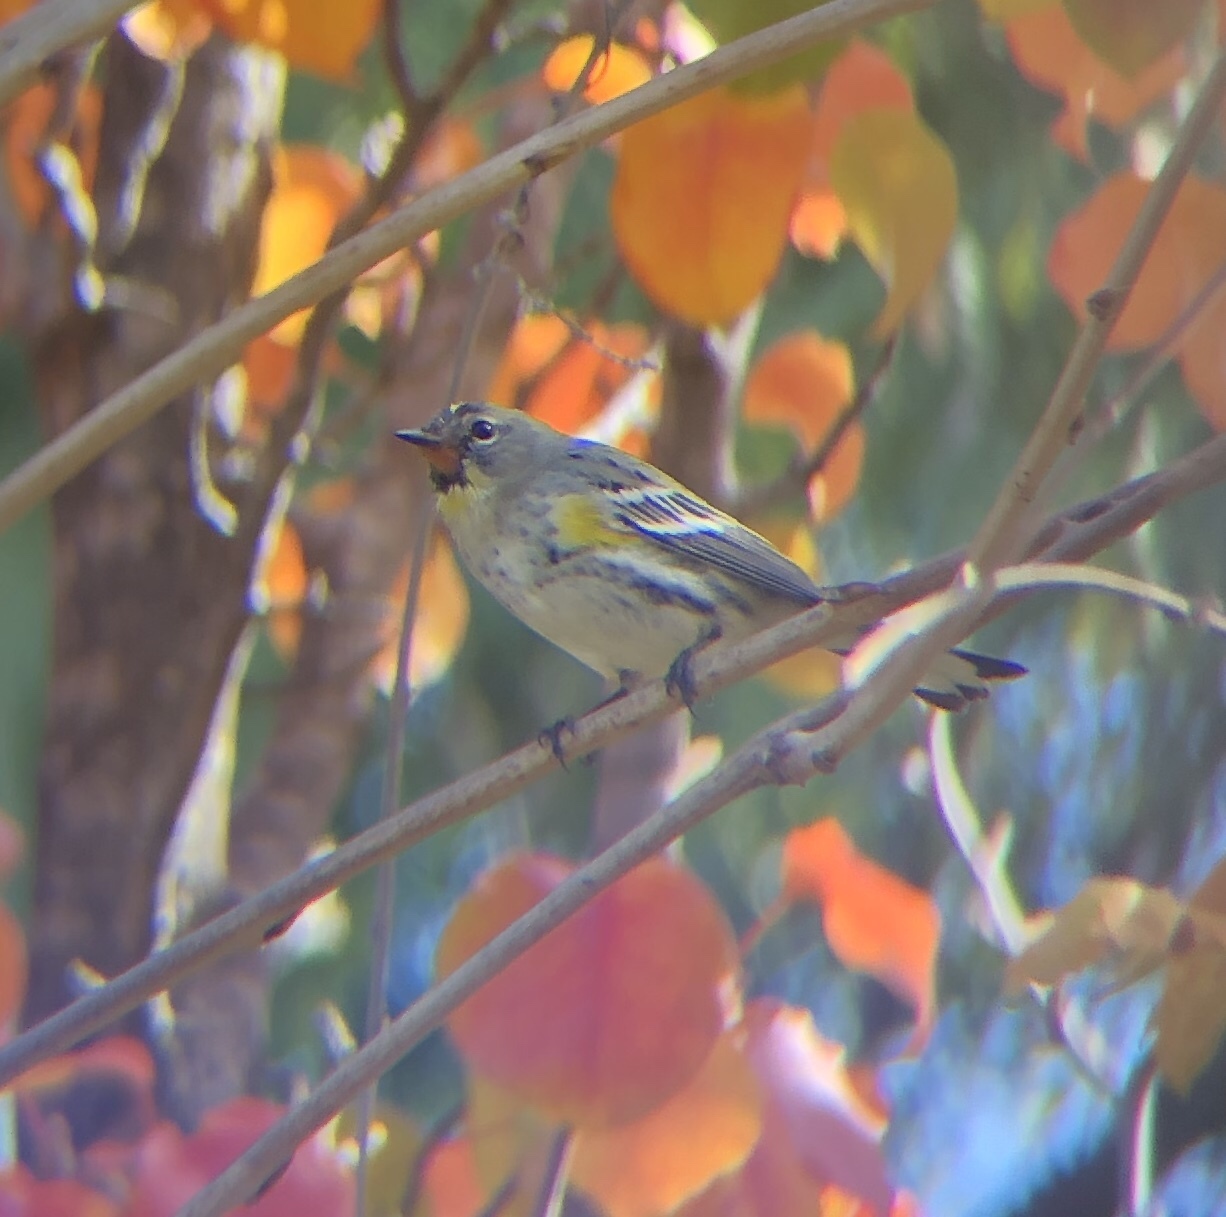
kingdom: Animalia
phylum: Chordata
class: Aves
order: Passeriformes
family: Parulidae
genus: Setophaga
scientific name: Setophaga coronata
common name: Myrtle warbler
